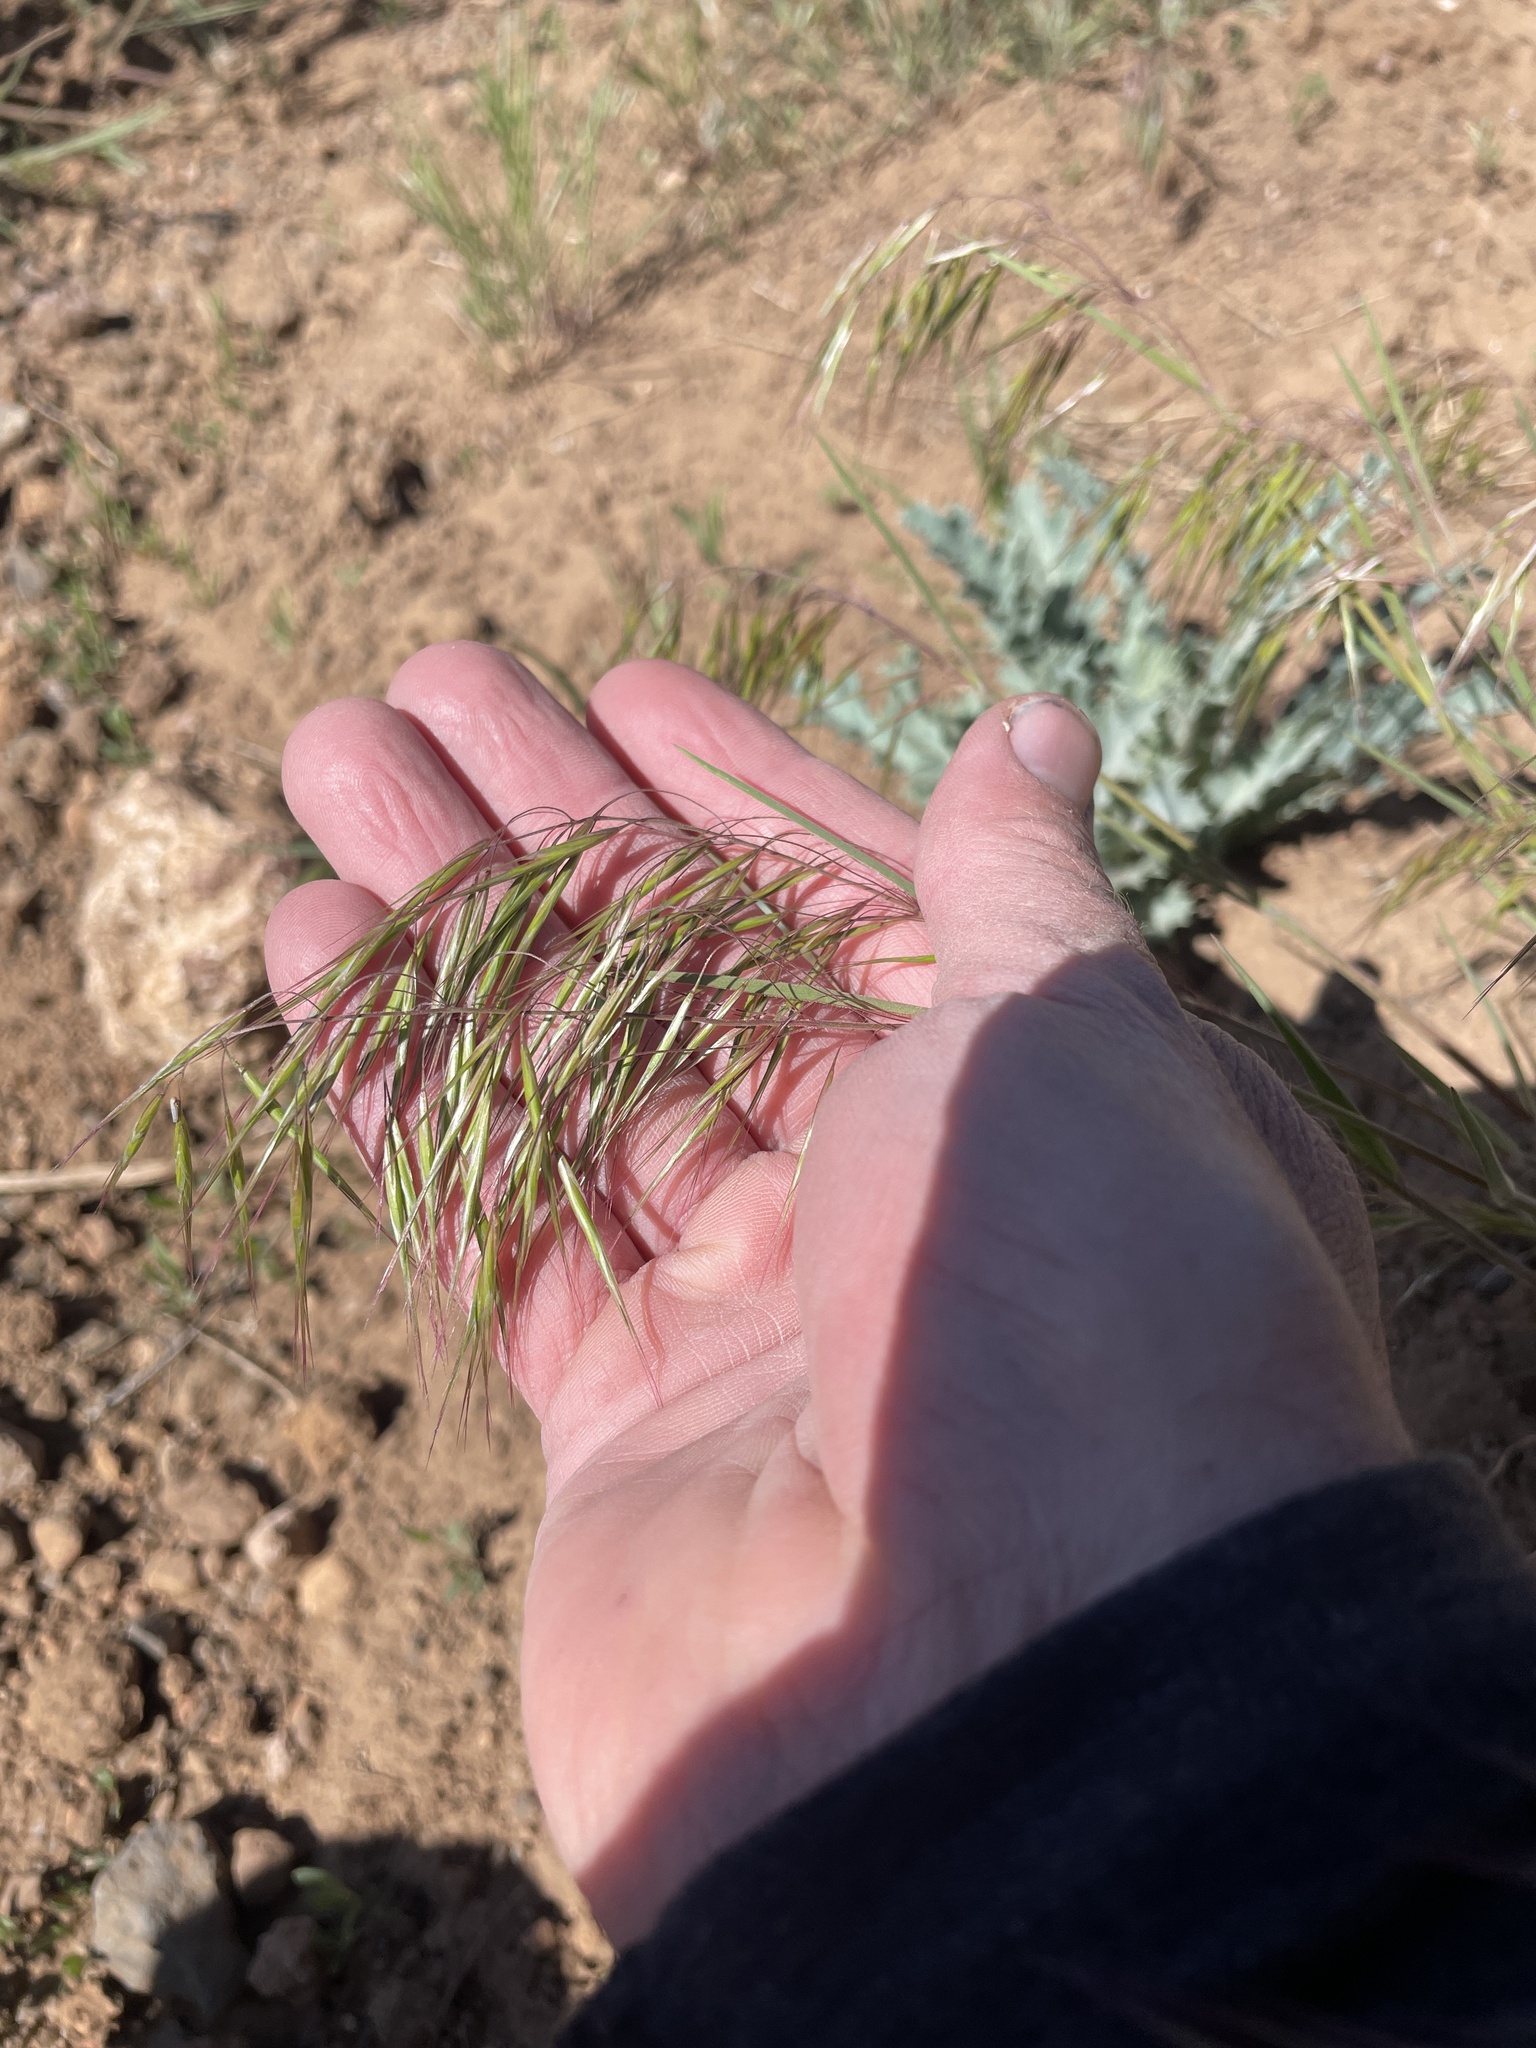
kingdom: Plantae
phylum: Tracheophyta
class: Liliopsida
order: Poales
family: Poaceae
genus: Bromus
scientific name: Bromus tectorum
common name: Cheatgrass
